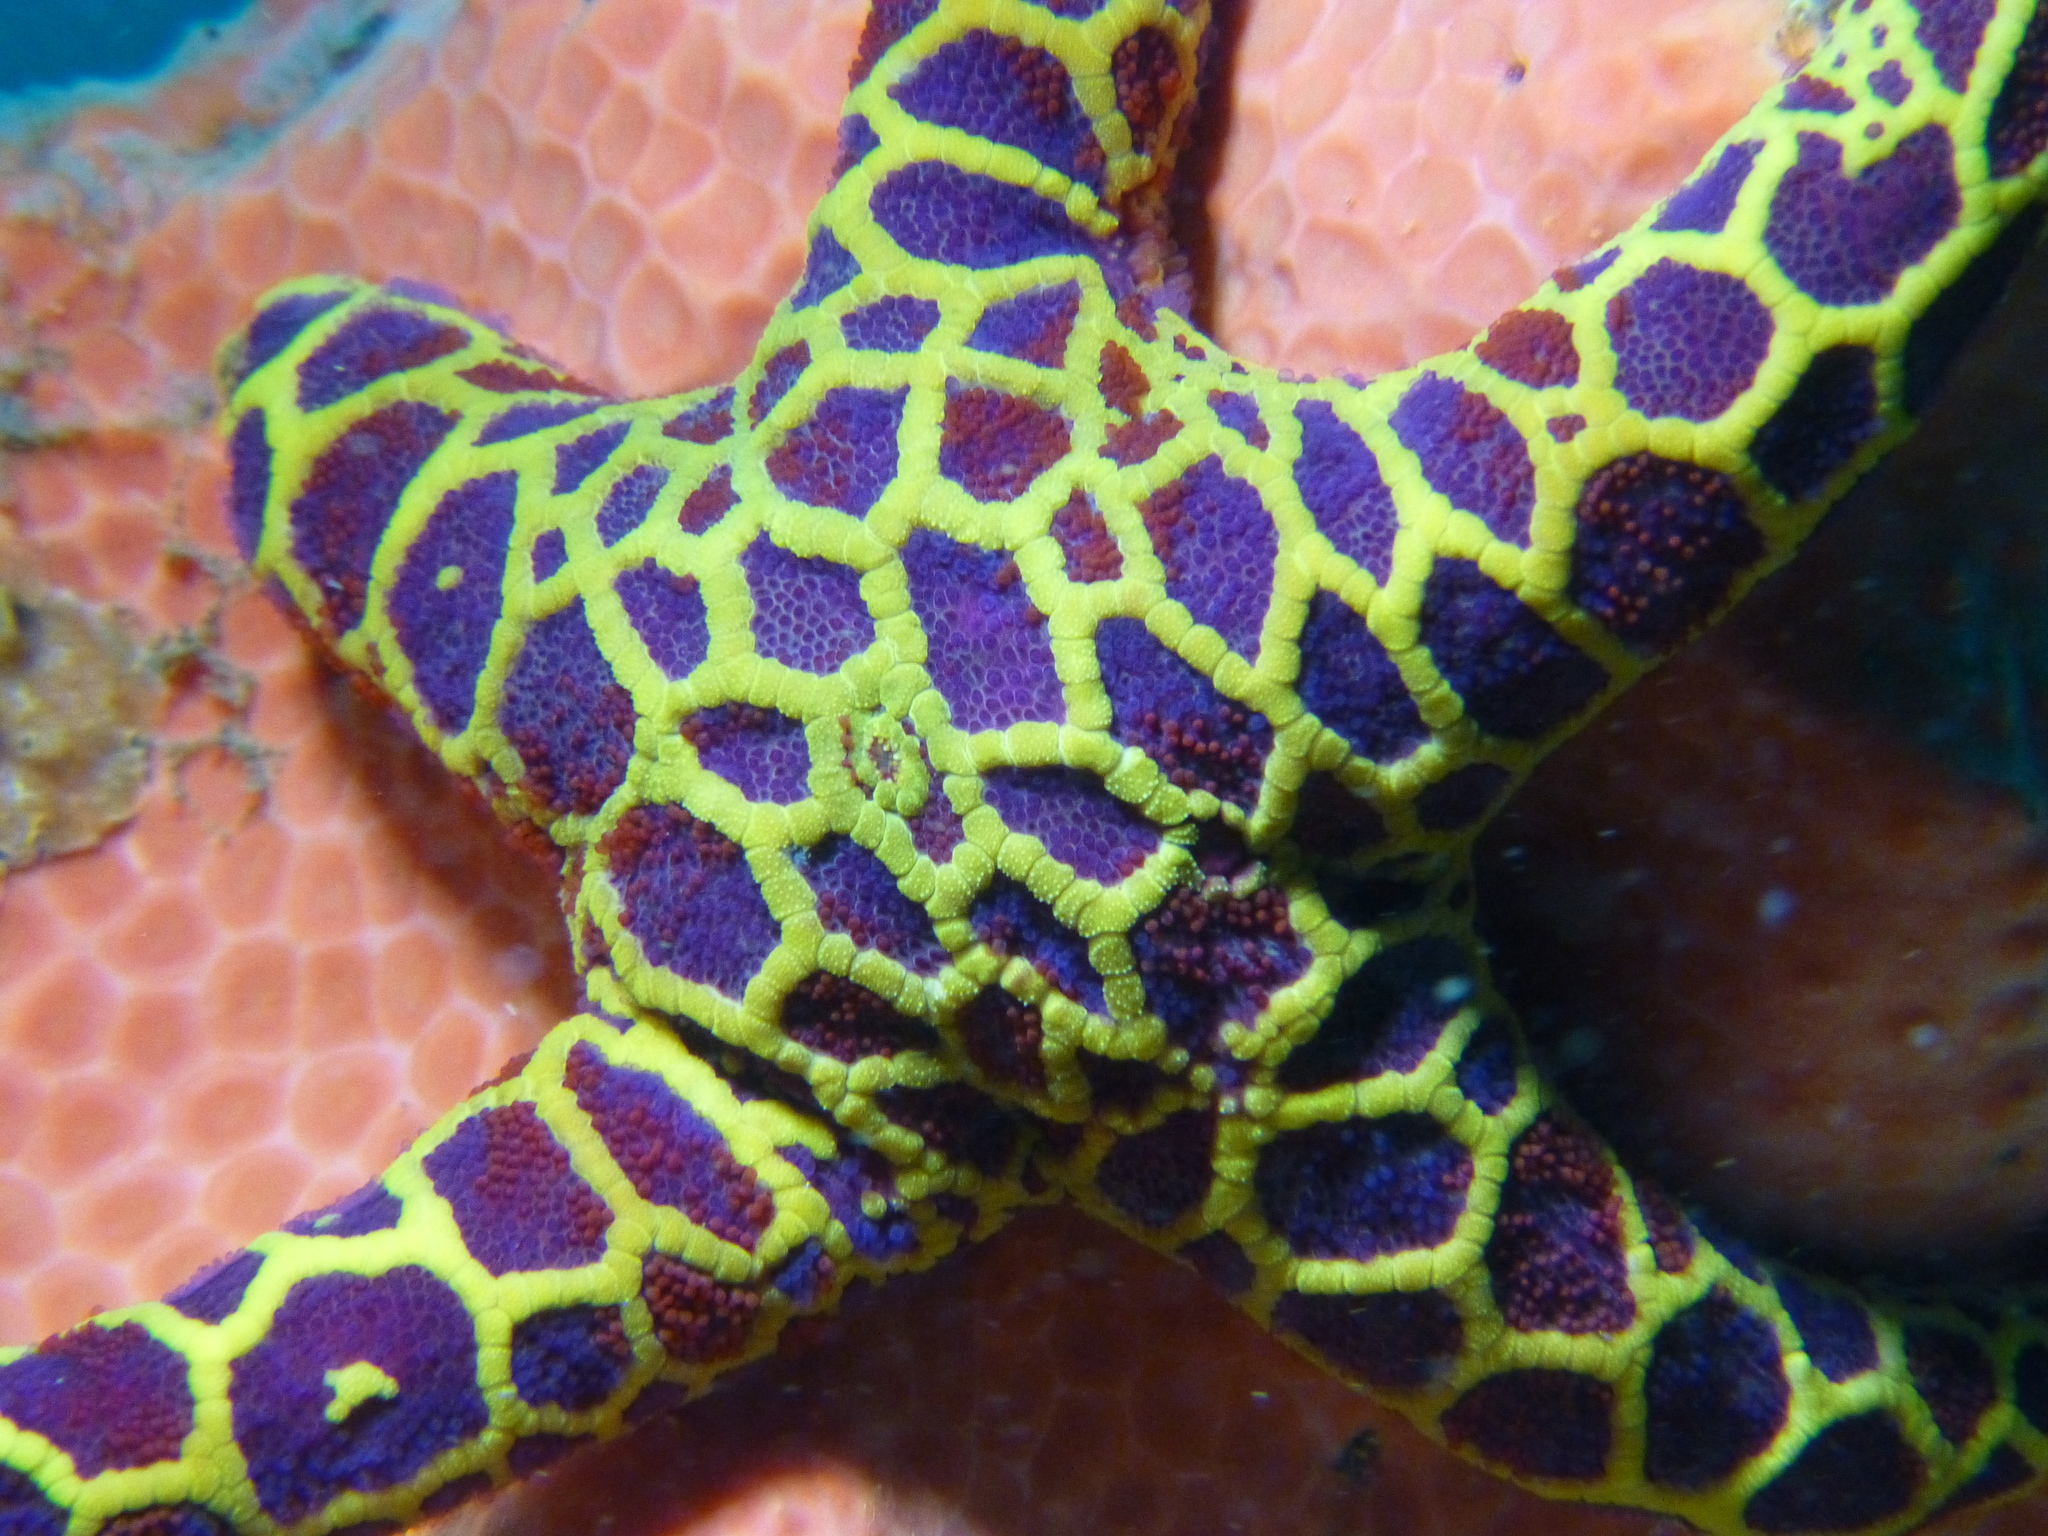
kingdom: Animalia
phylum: Echinodermata
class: Asteroidea
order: Spinulosida
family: Echinasteridae
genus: Plectaster
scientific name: Plectaster decanus
